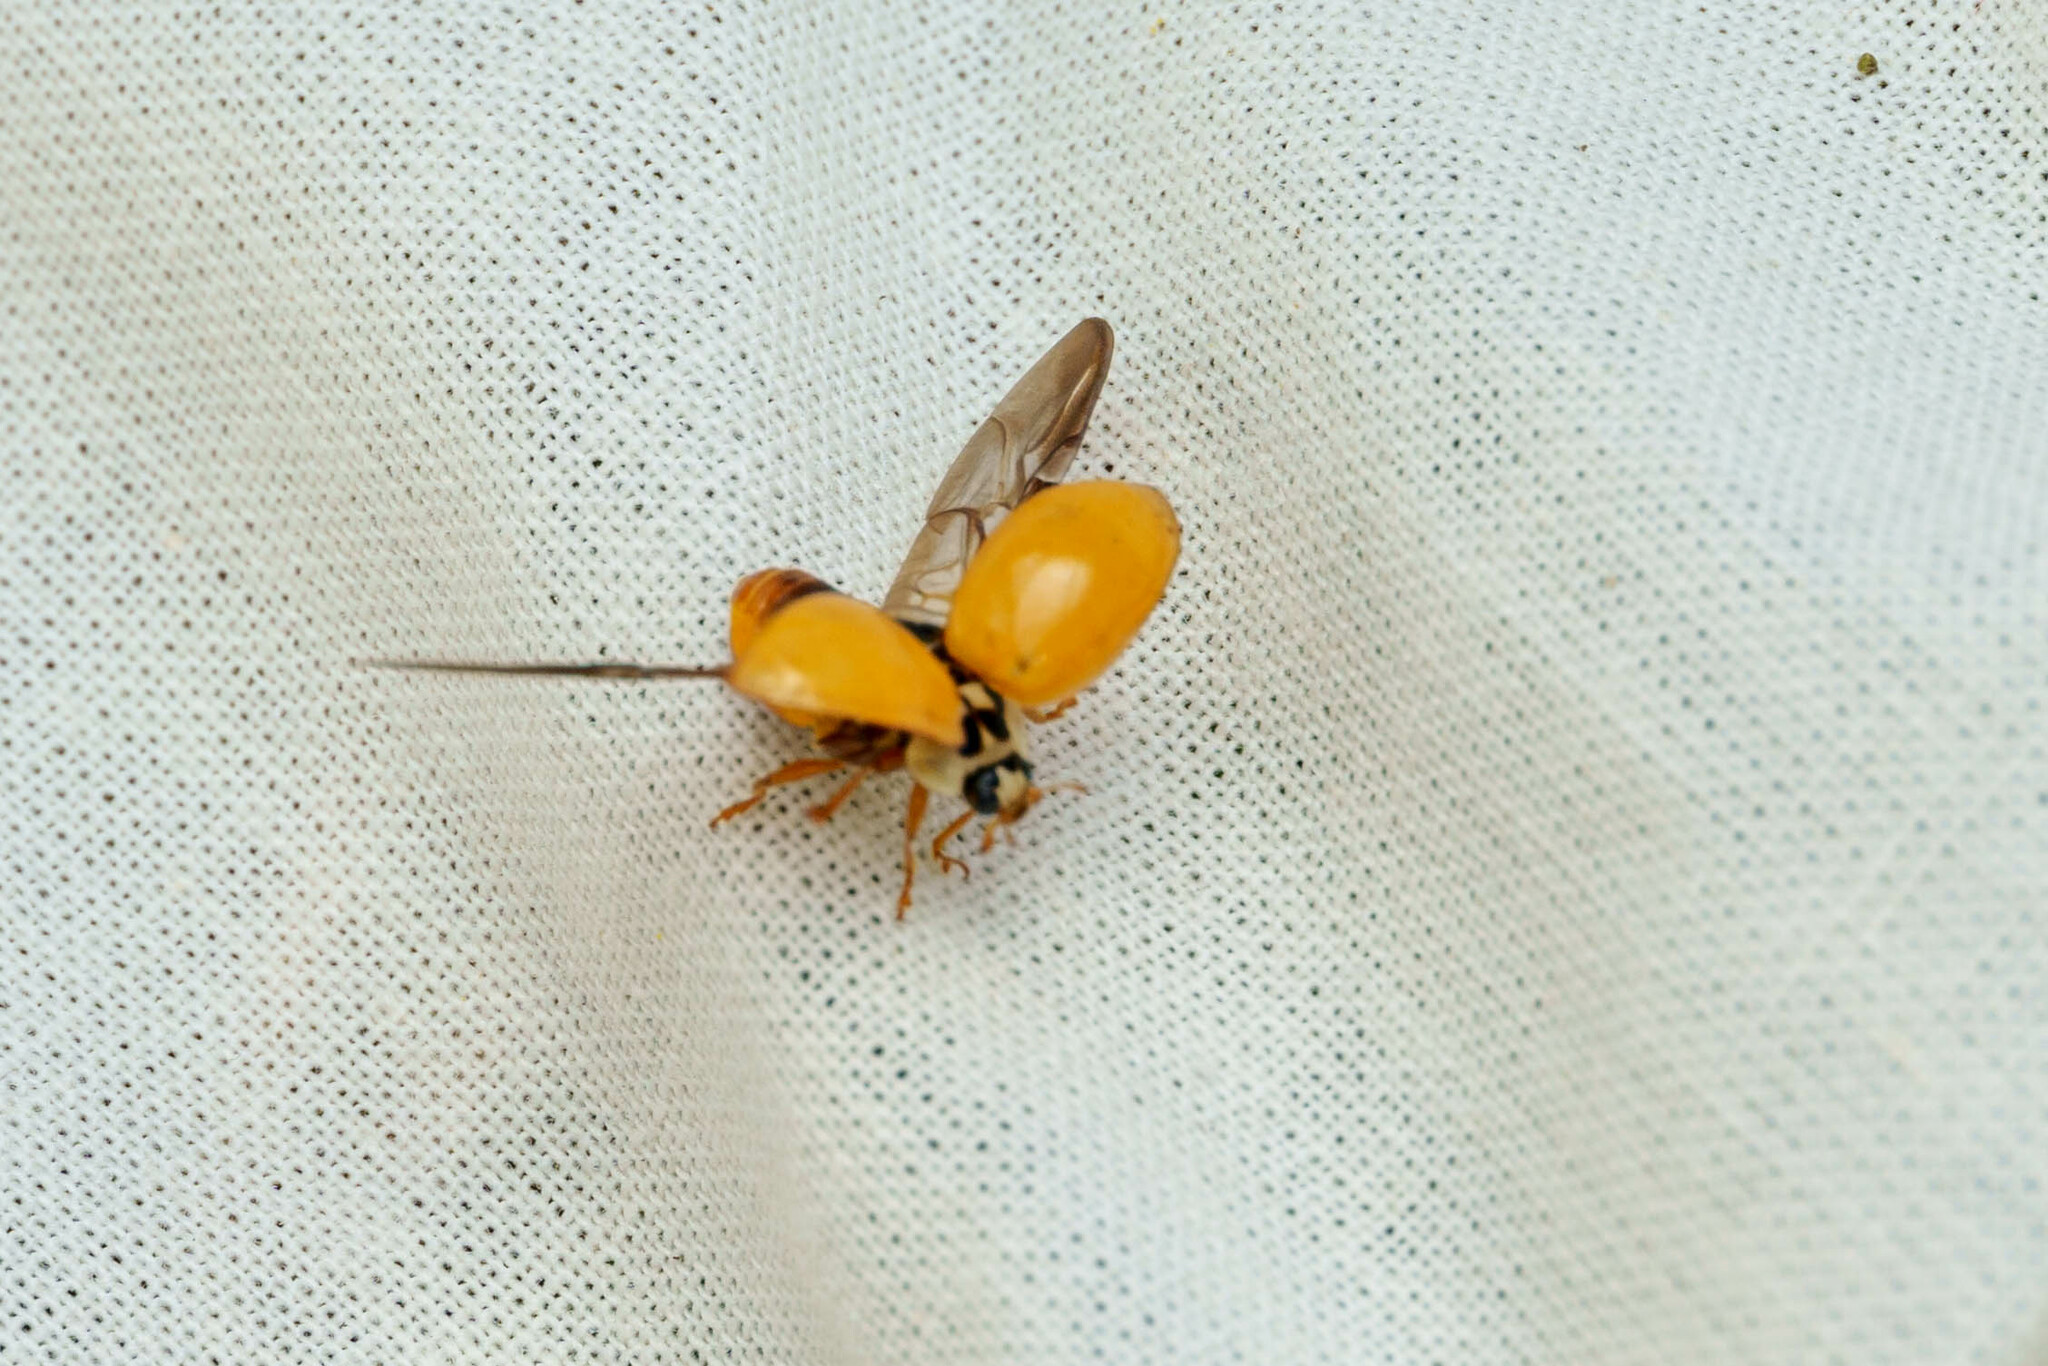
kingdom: Animalia
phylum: Arthropoda
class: Insecta
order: Coleoptera
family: Coccinellidae
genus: Harmonia
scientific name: Harmonia axyridis
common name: Harlequin ladybird
